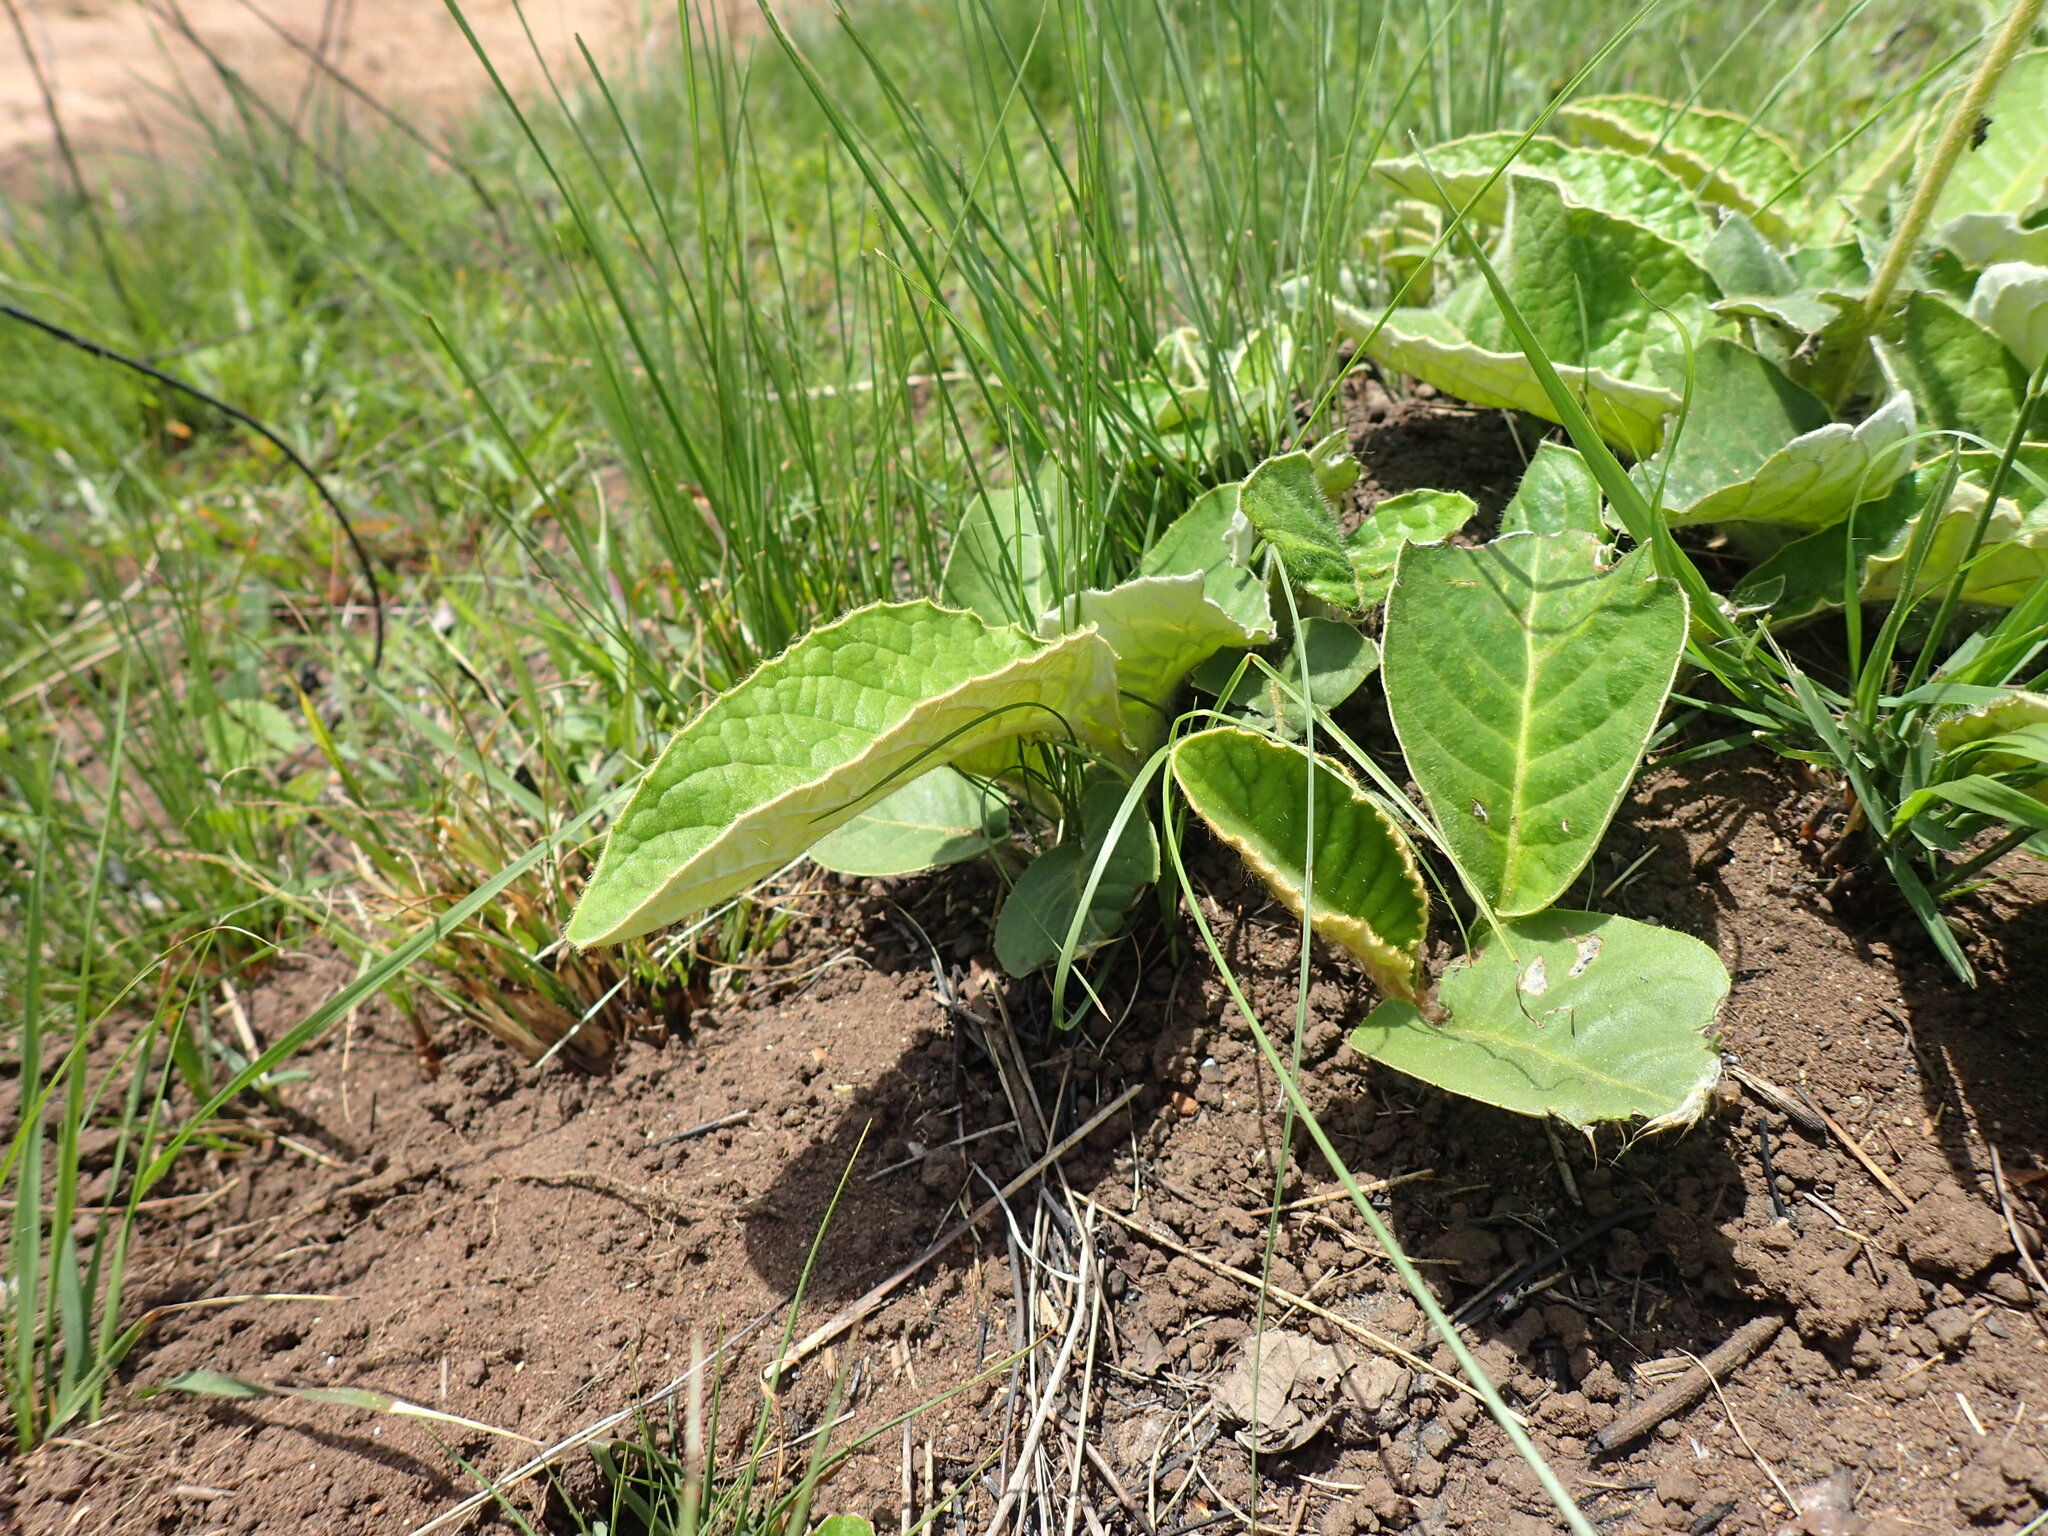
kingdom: Plantae
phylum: Tracheophyta
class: Magnoliopsida
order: Asterales
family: Asteraceae
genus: Gerbera
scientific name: Gerbera ambigua
